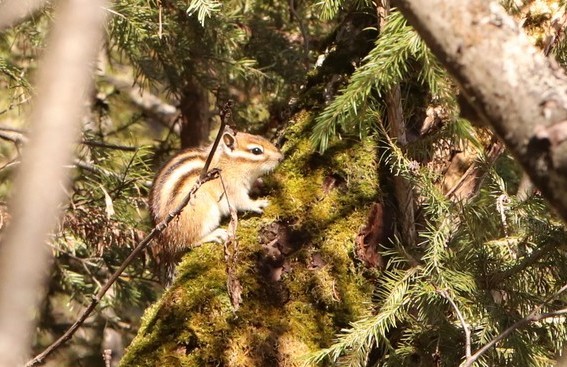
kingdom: Animalia
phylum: Chordata
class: Mammalia
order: Rodentia
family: Sciuridae
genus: Tamias
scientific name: Tamias sibiricus
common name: Siberian chipmunk
